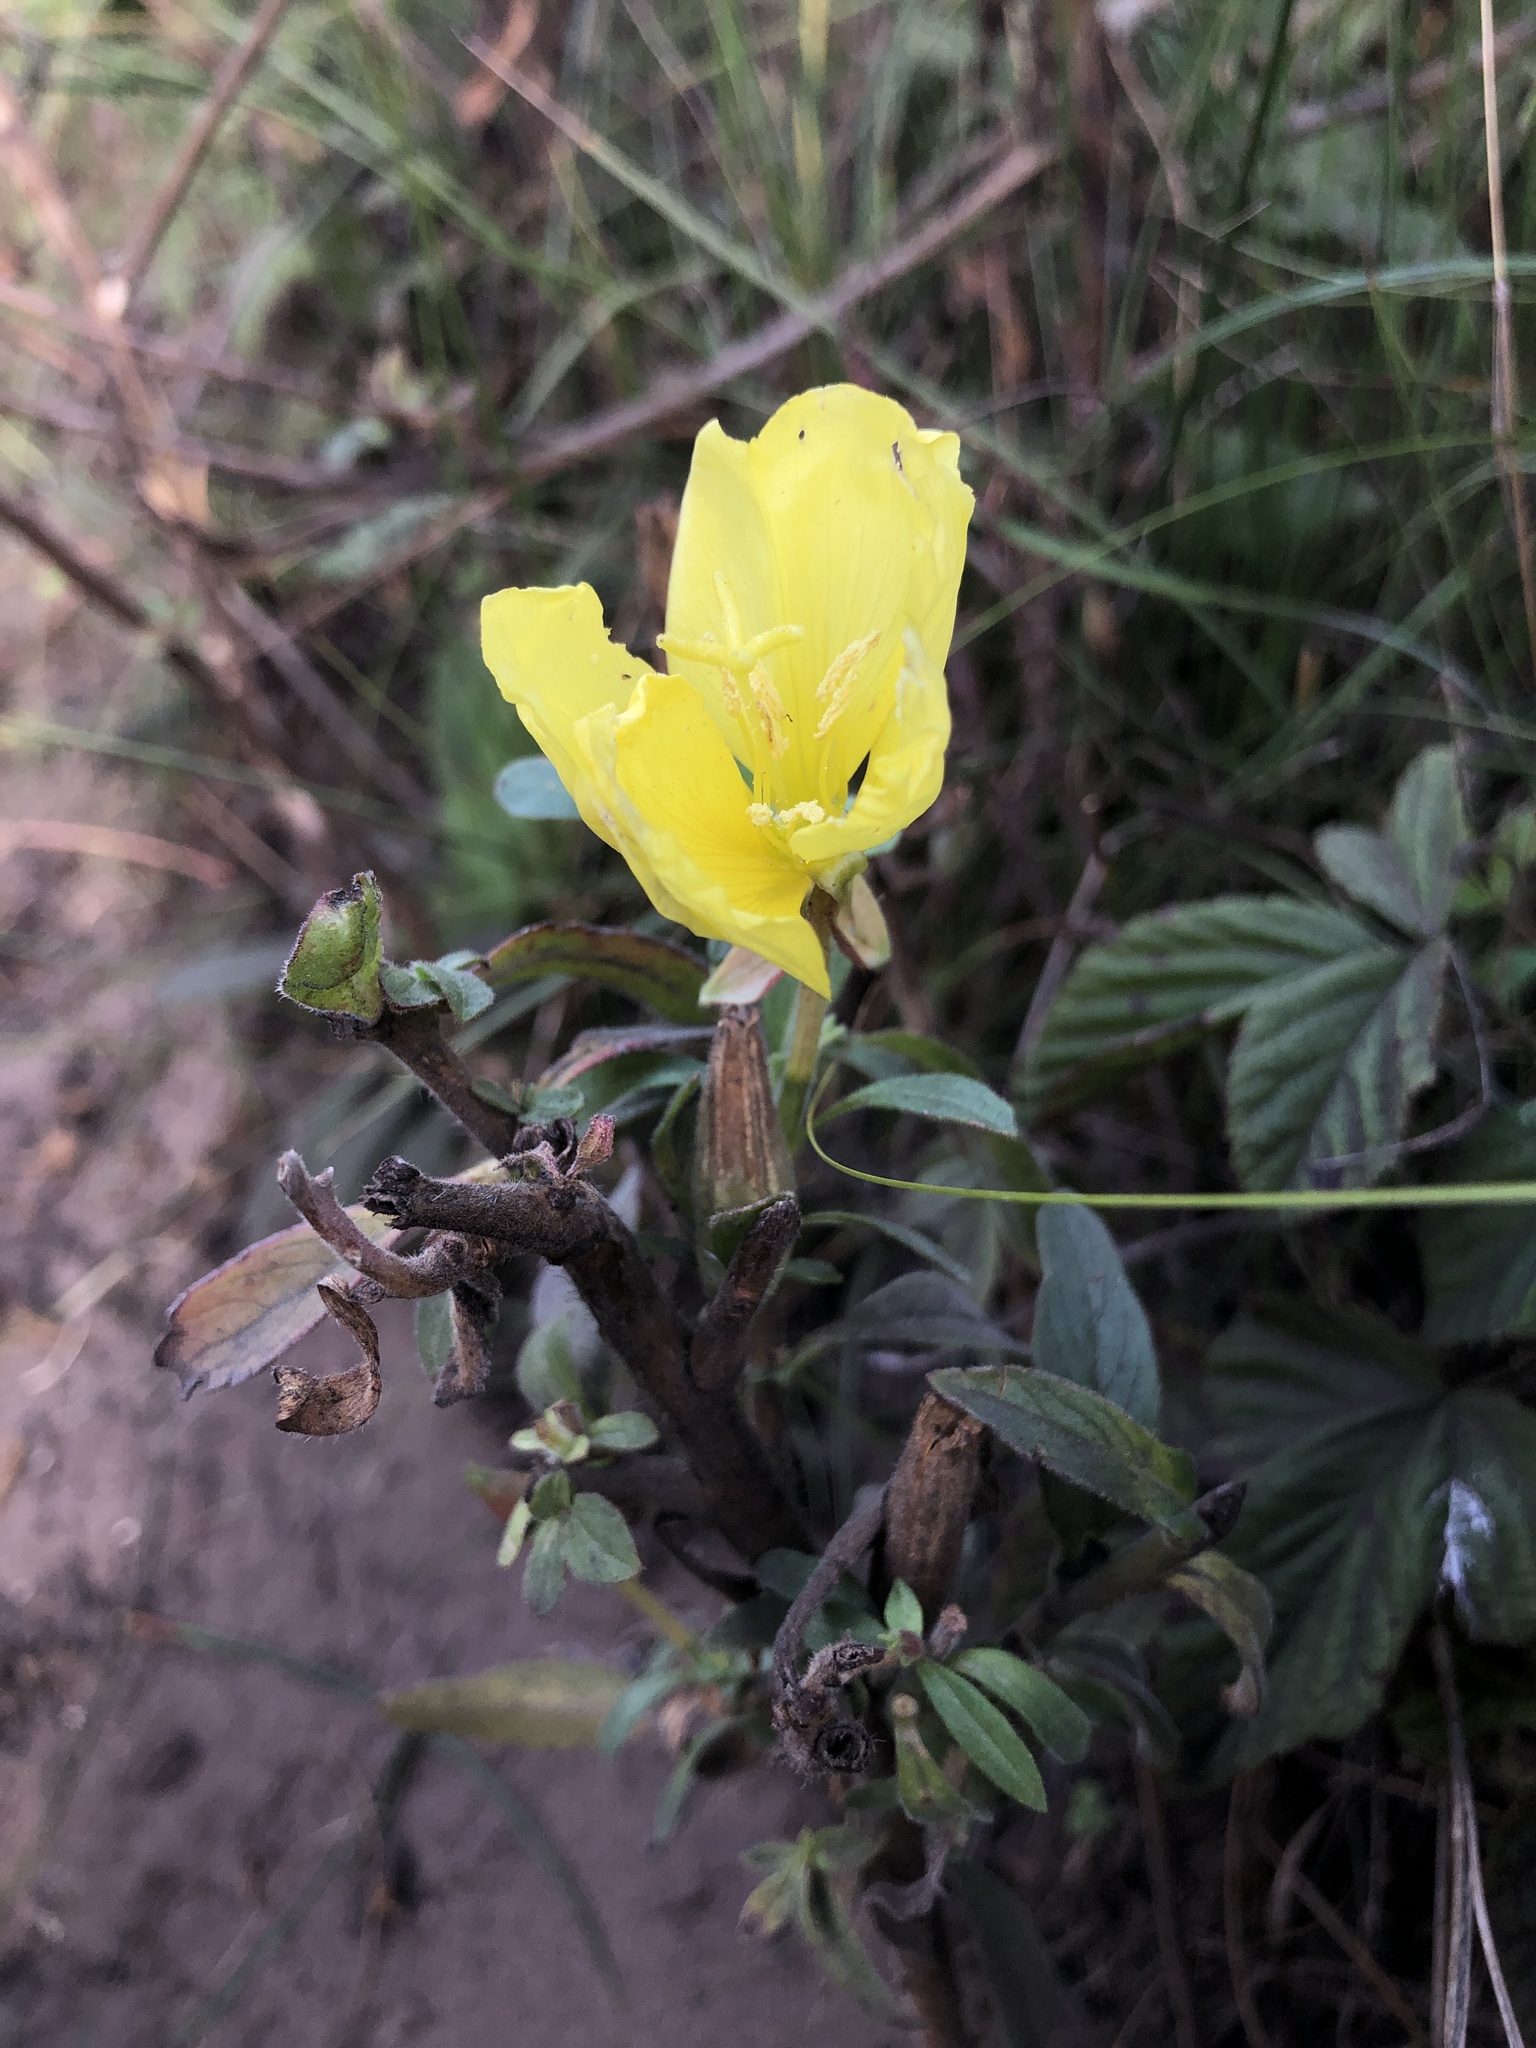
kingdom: Plantae
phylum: Tracheophyta
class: Magnoliopsida
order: Myrtales
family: Onagraceae
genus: Oenothera
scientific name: Oenothera elata
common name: Hooker's evening-primrose
